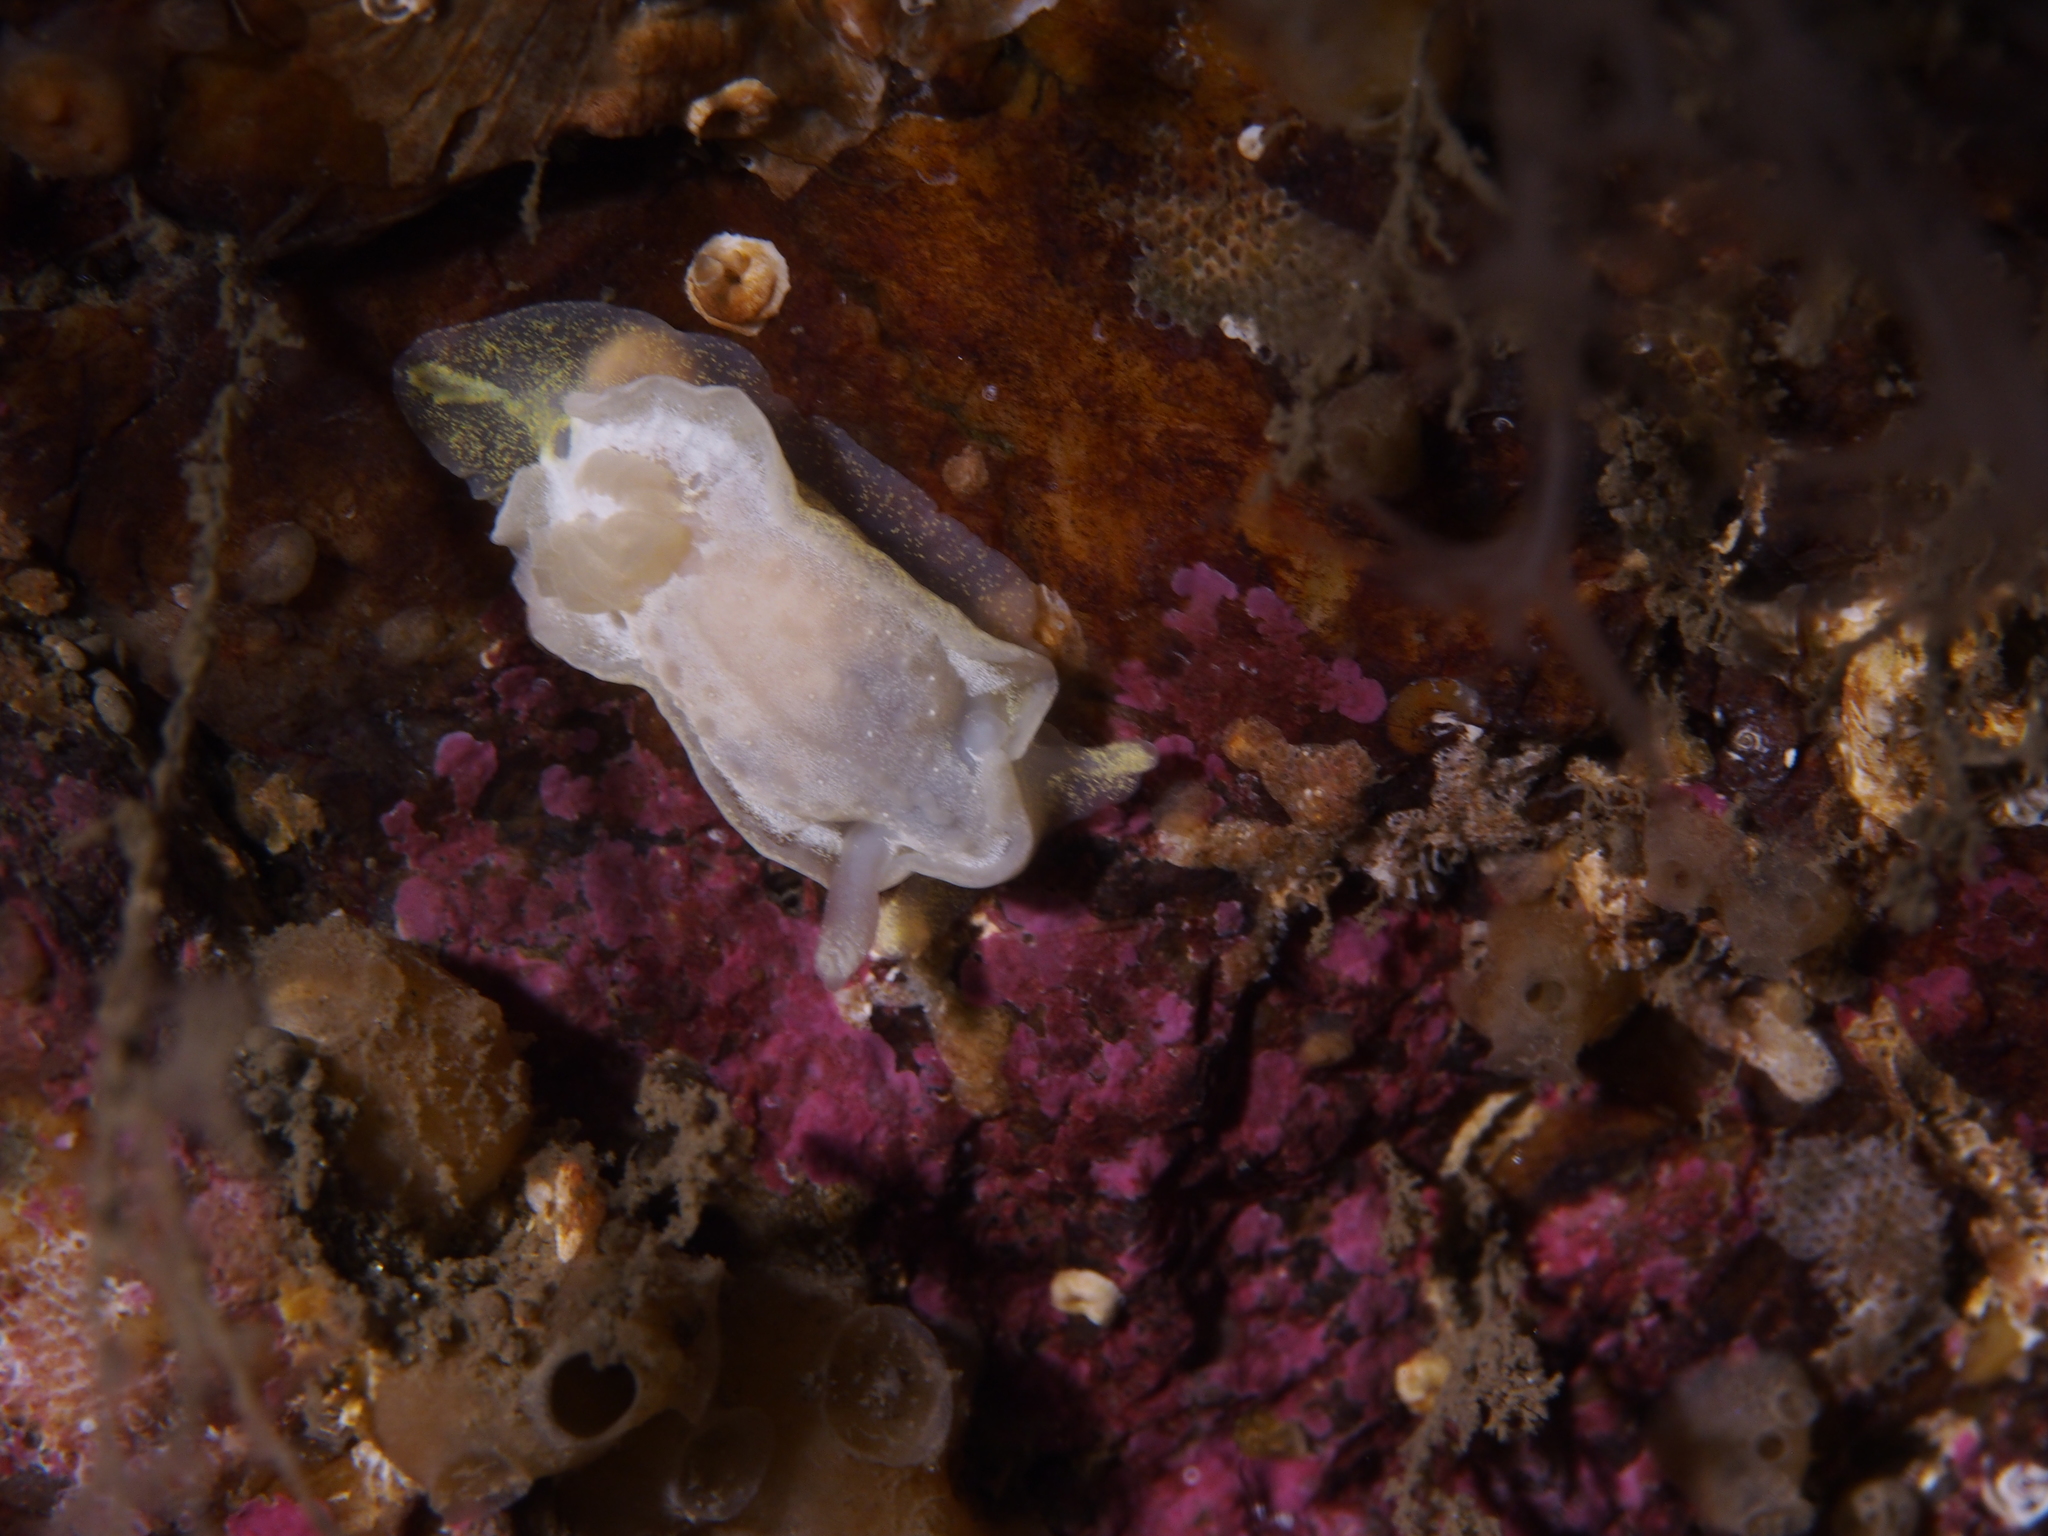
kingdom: Animalia
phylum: Mollusca
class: Gastropoda
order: Nudibranchia
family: Goniodorididae
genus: Okenia
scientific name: Okenia
